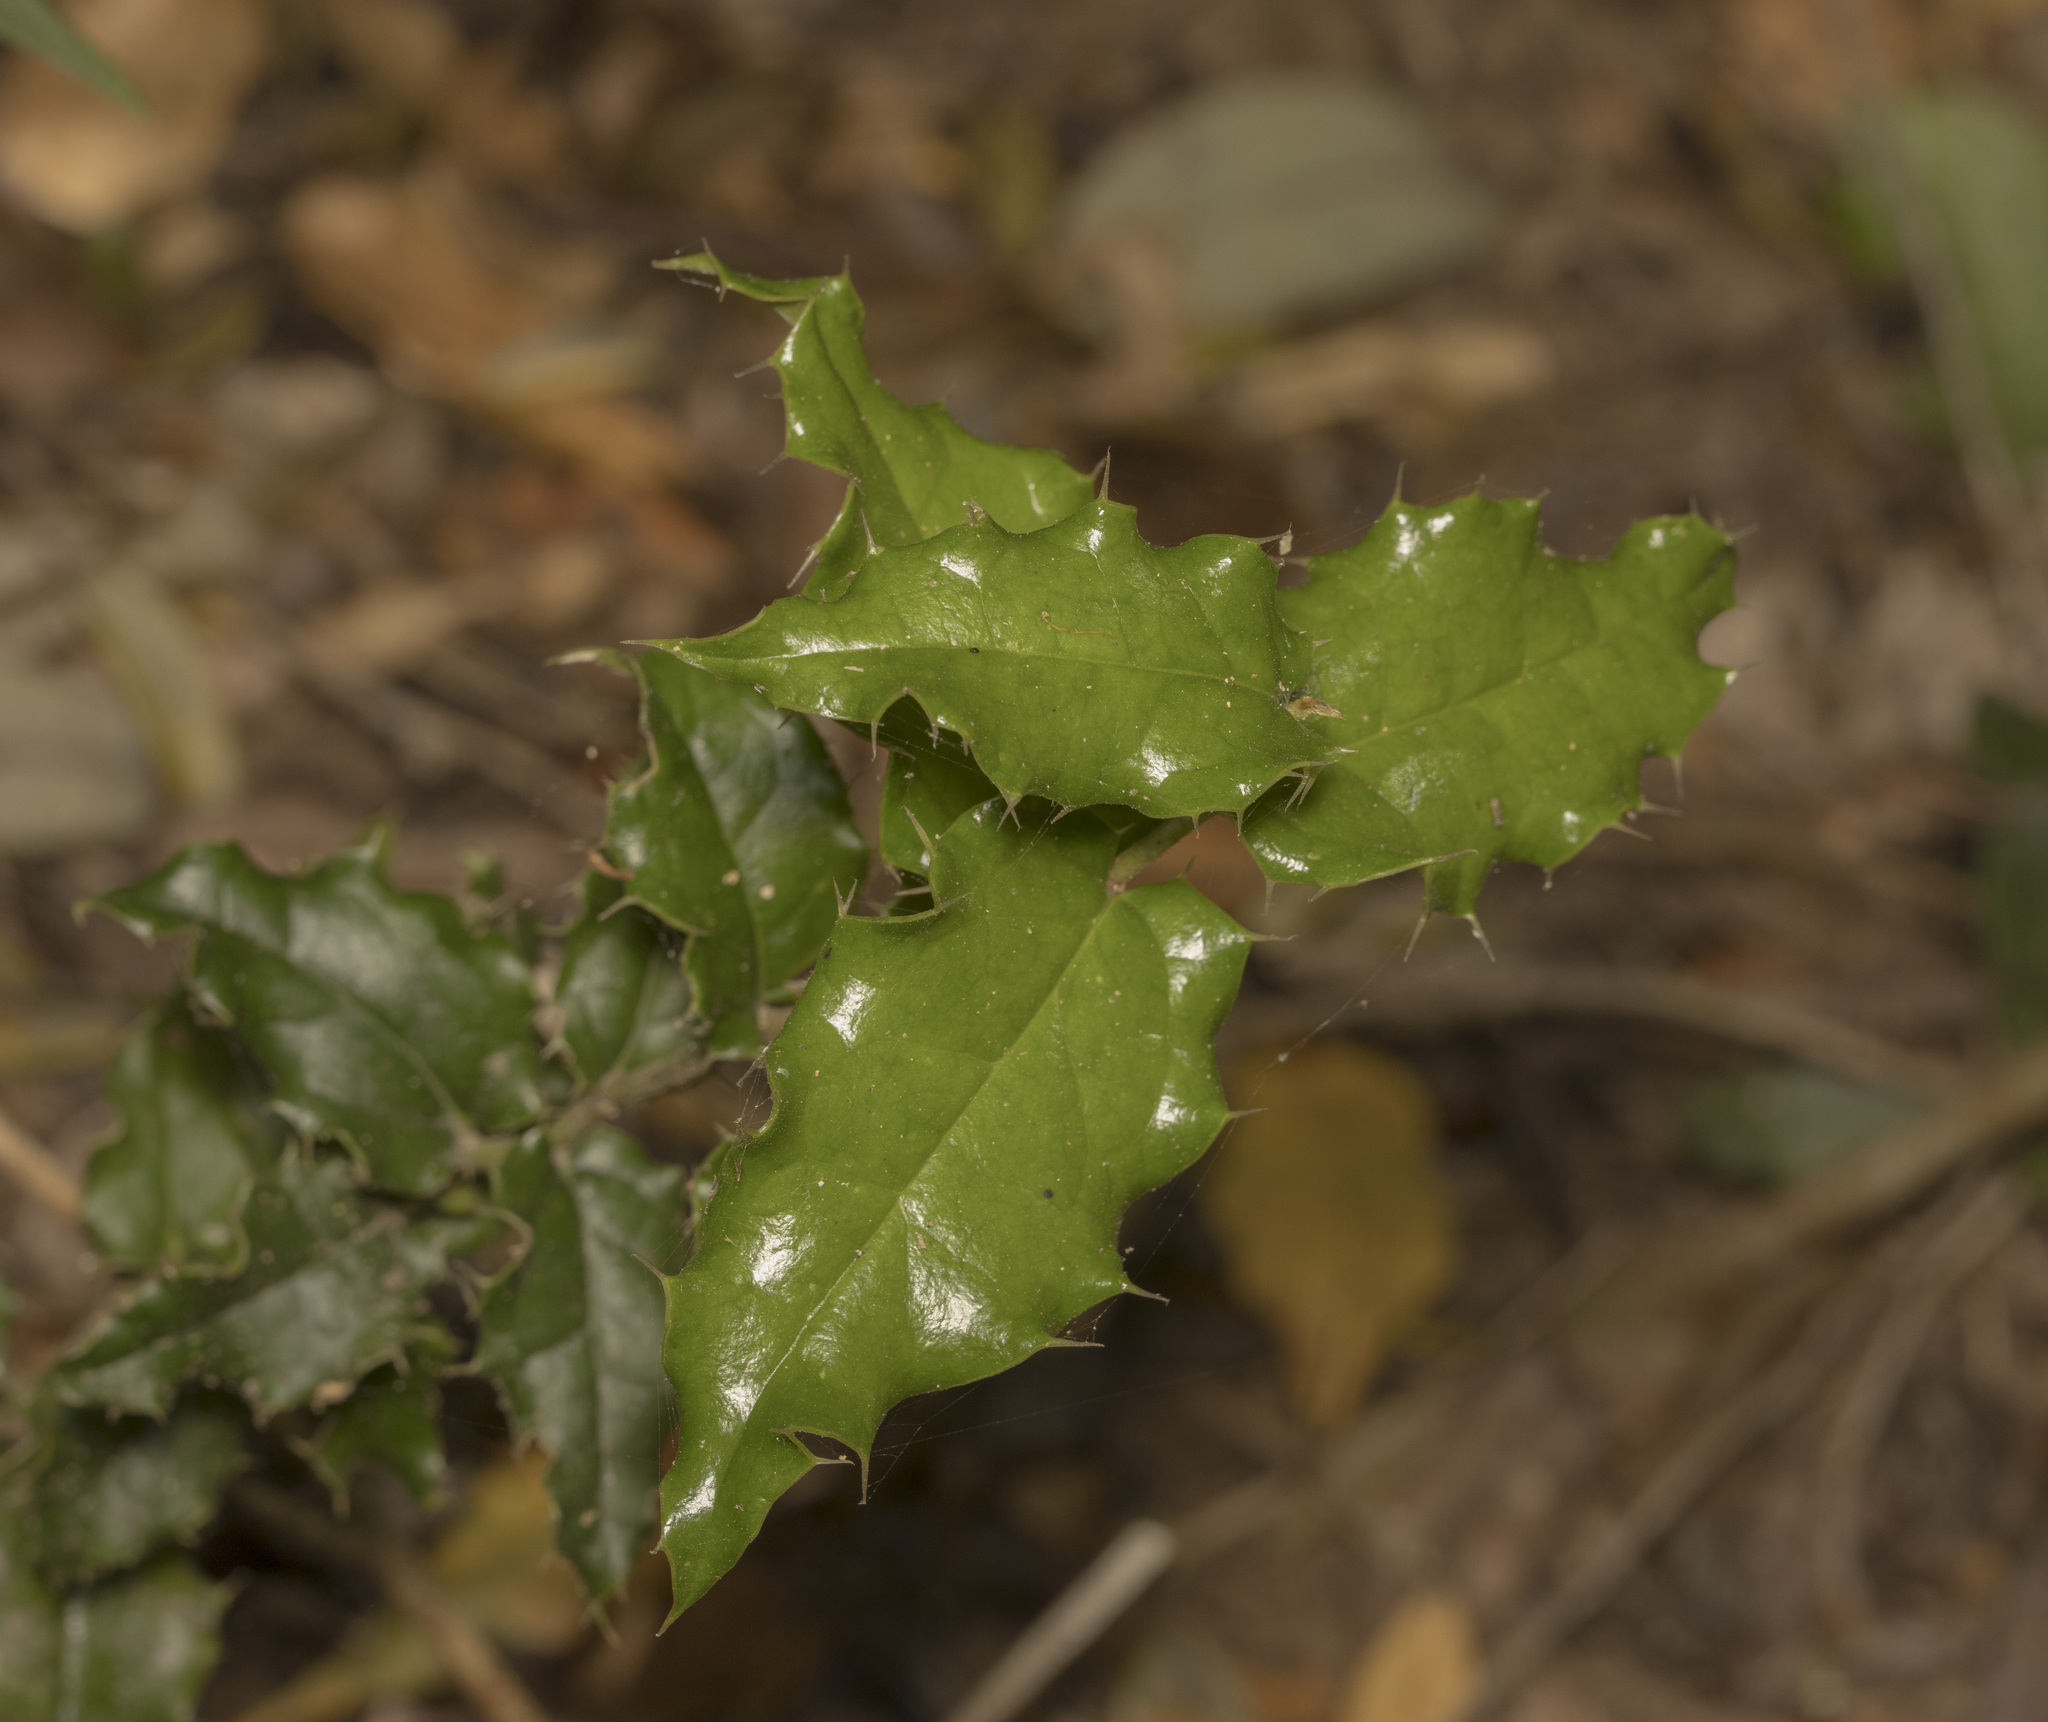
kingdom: Plantae
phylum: Tracheophyta
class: Magnoliopsida
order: Cardiopteridales
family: Cardiopteridaceae
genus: Citronella
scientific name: Citronella mucronata
